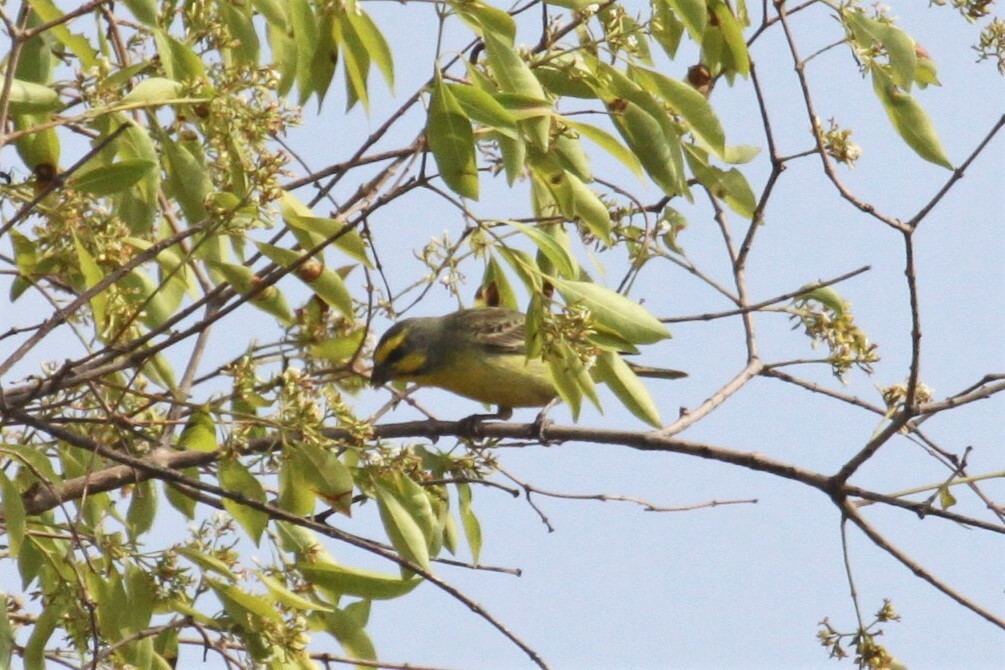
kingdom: Animalia
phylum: Chordata
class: Aves
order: Passeriformes
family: Fringillidae
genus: Crithagra
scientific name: Crithagra mozambica
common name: Yellow-fronted canary
